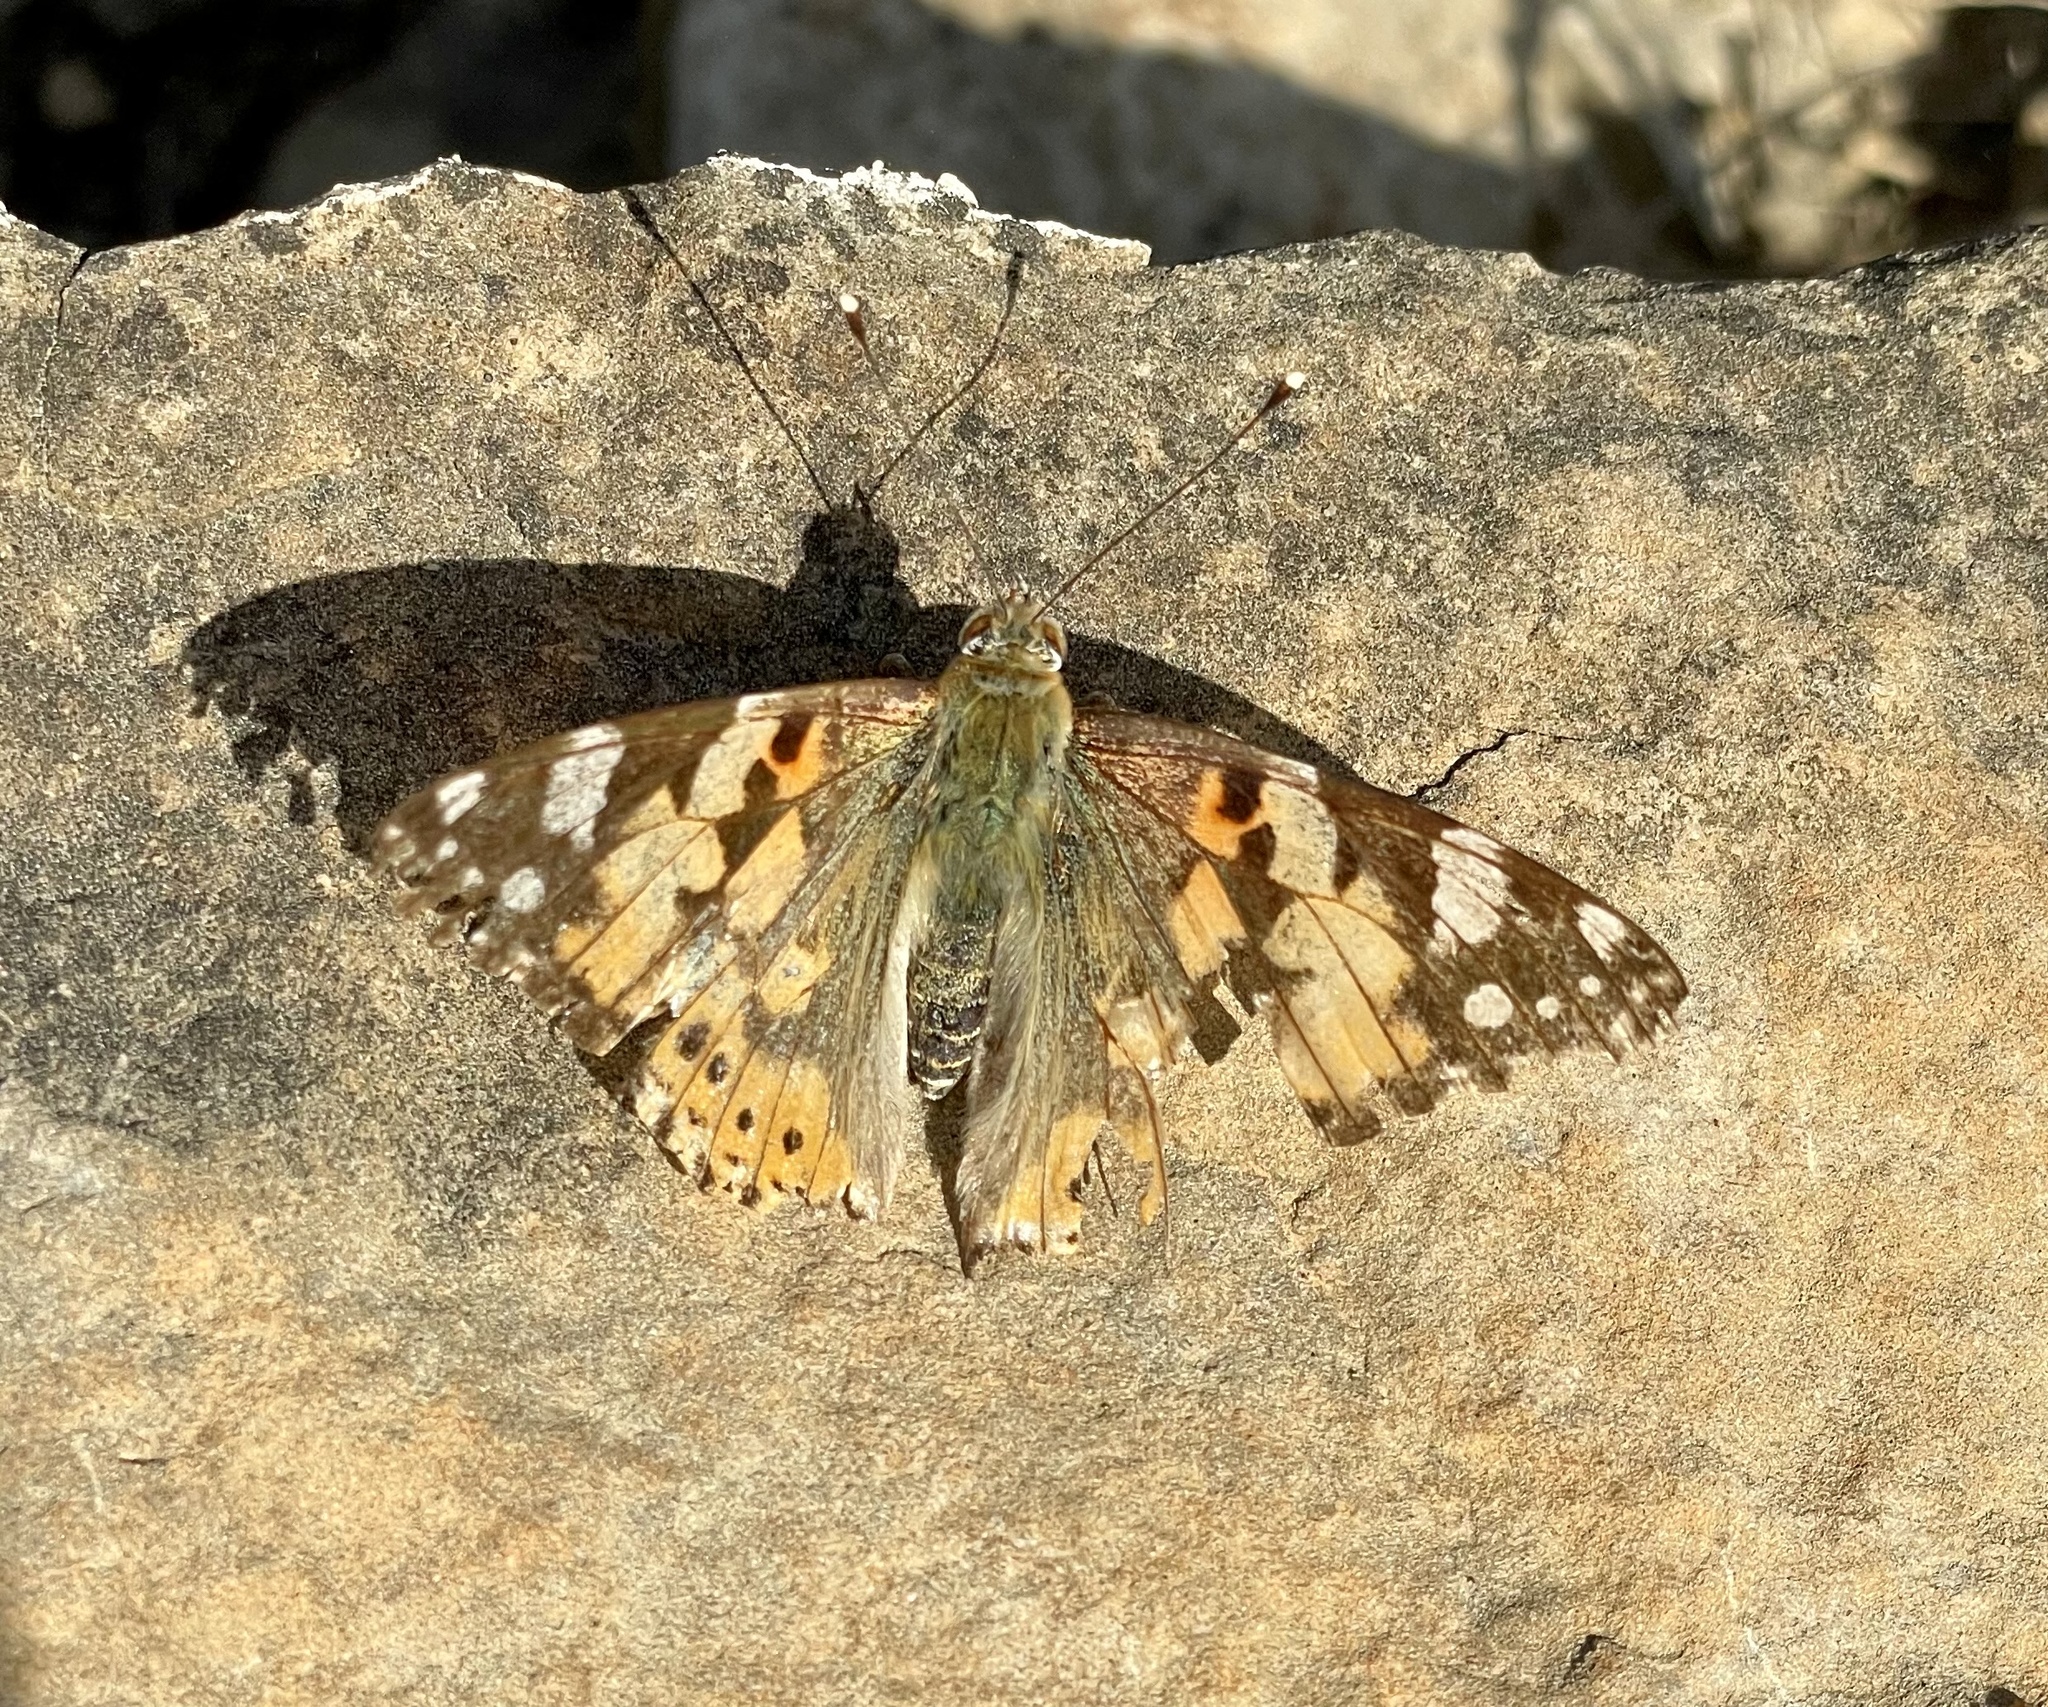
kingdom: Animalia
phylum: Arthropoda
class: Insecta
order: Lepidoptera
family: Nymphalidae
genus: Vanessa
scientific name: Vanessa cardui
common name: Painted lady
